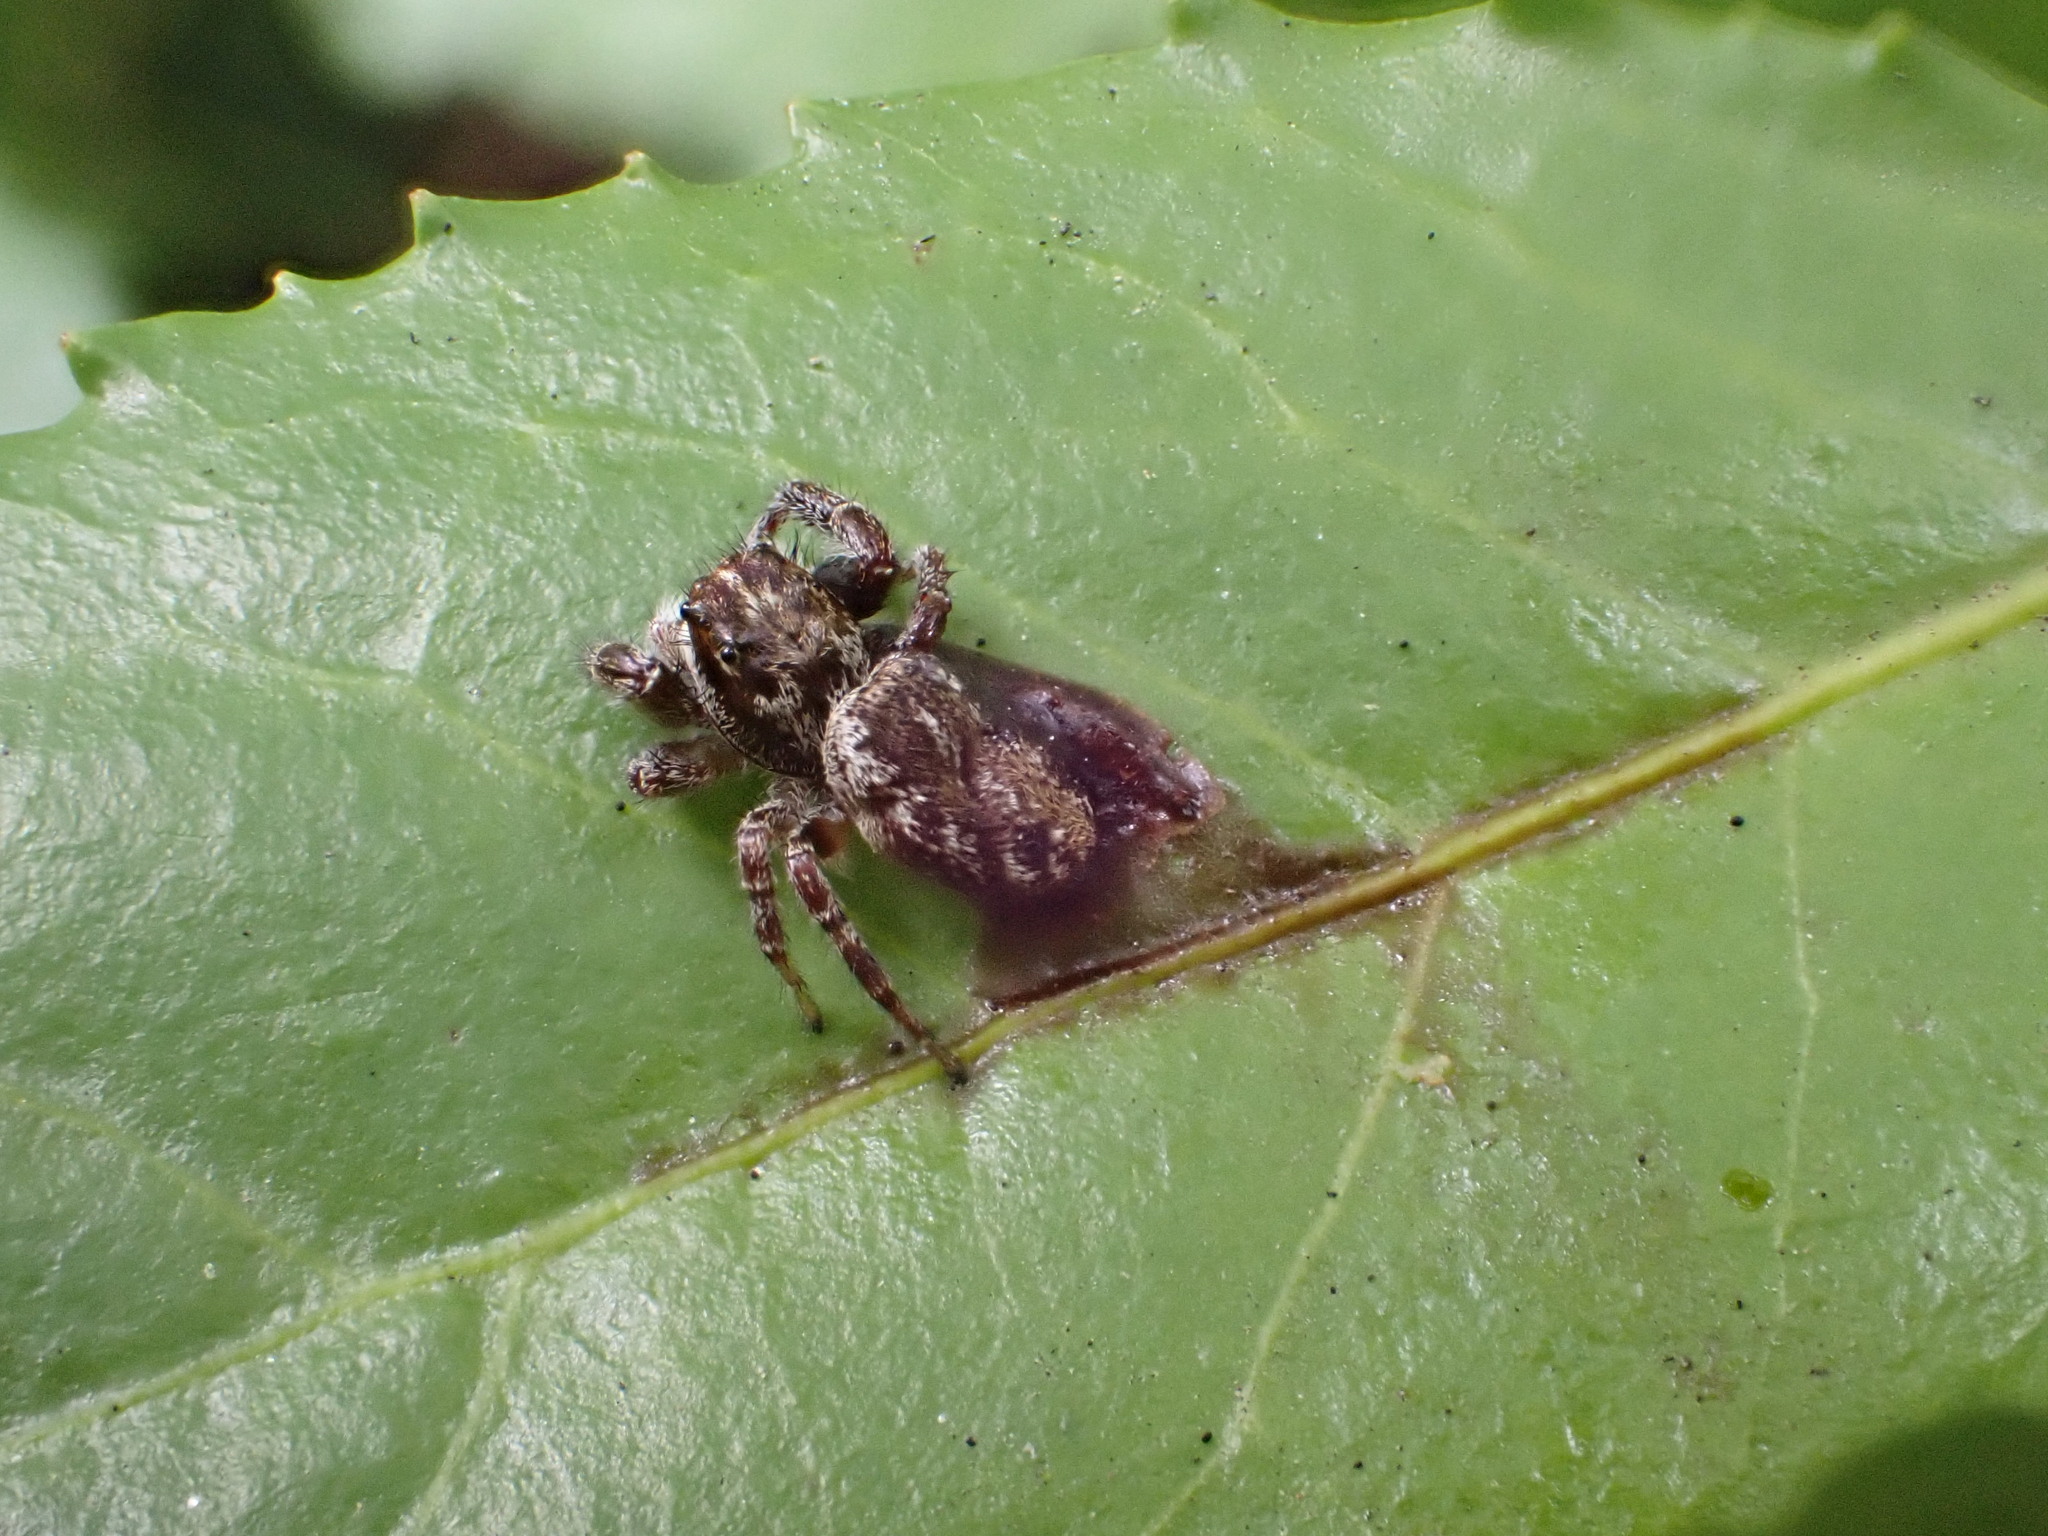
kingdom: Animalia
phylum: Arthropoda
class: Arachnida
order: Araneae
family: Salticidae
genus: Phanias
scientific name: Phanias albeolus
